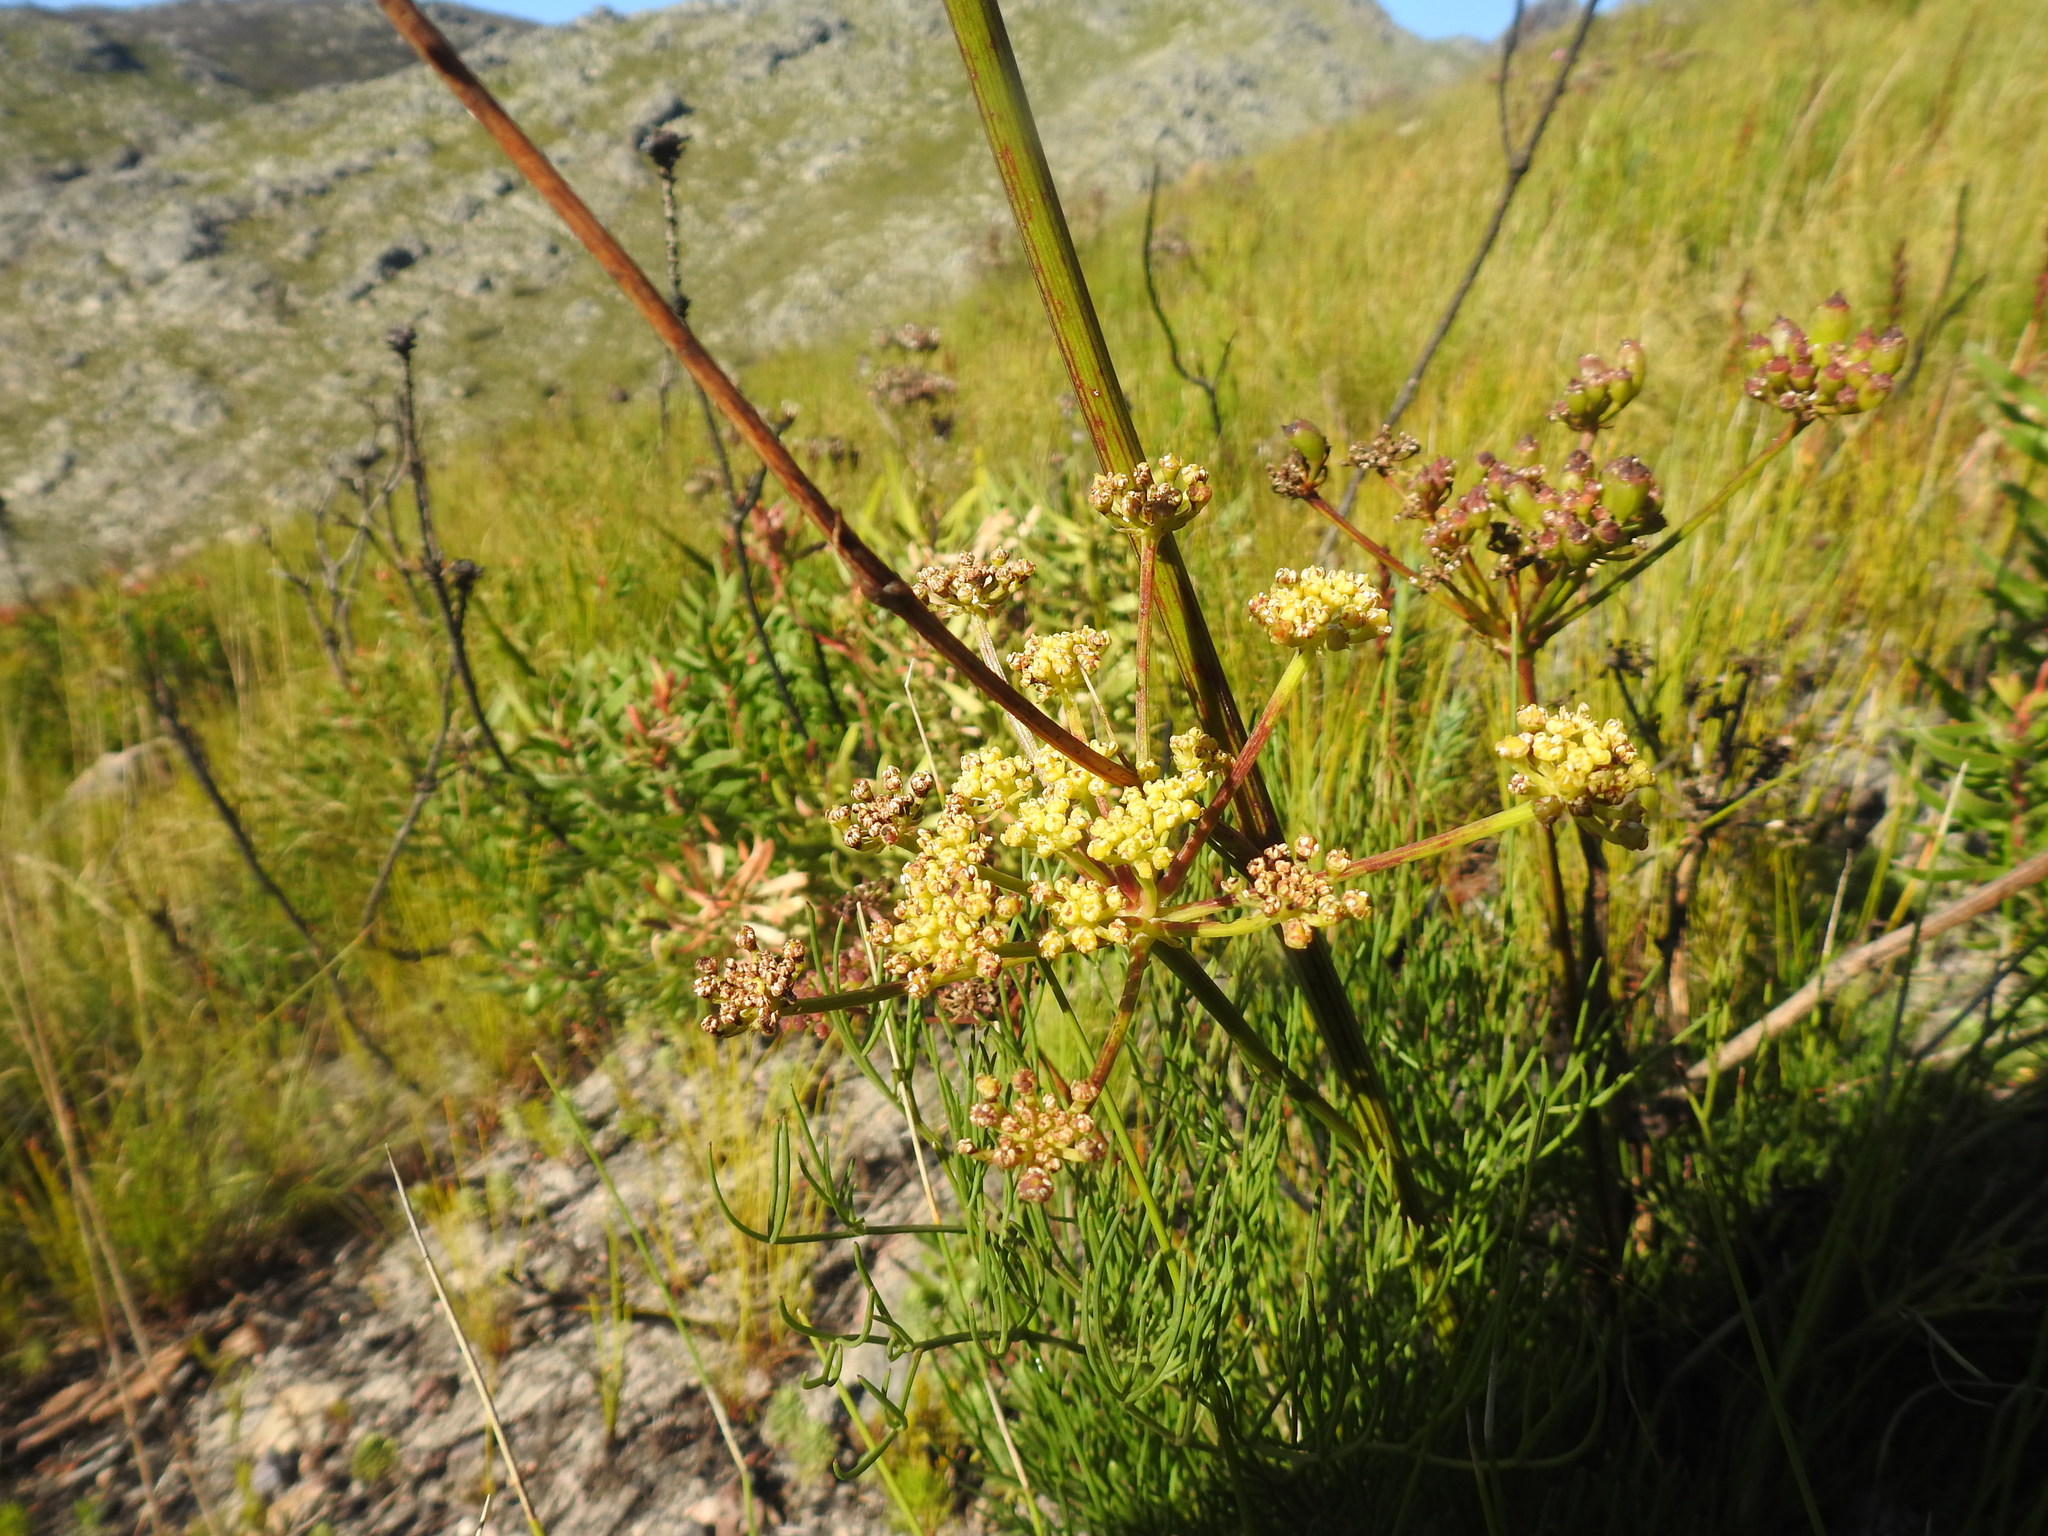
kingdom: Plantae
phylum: Tracheophyta
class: Magnoliopsida
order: Apiales
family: Apiaceae
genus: Nanobubon
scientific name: Nanobubon strictum
